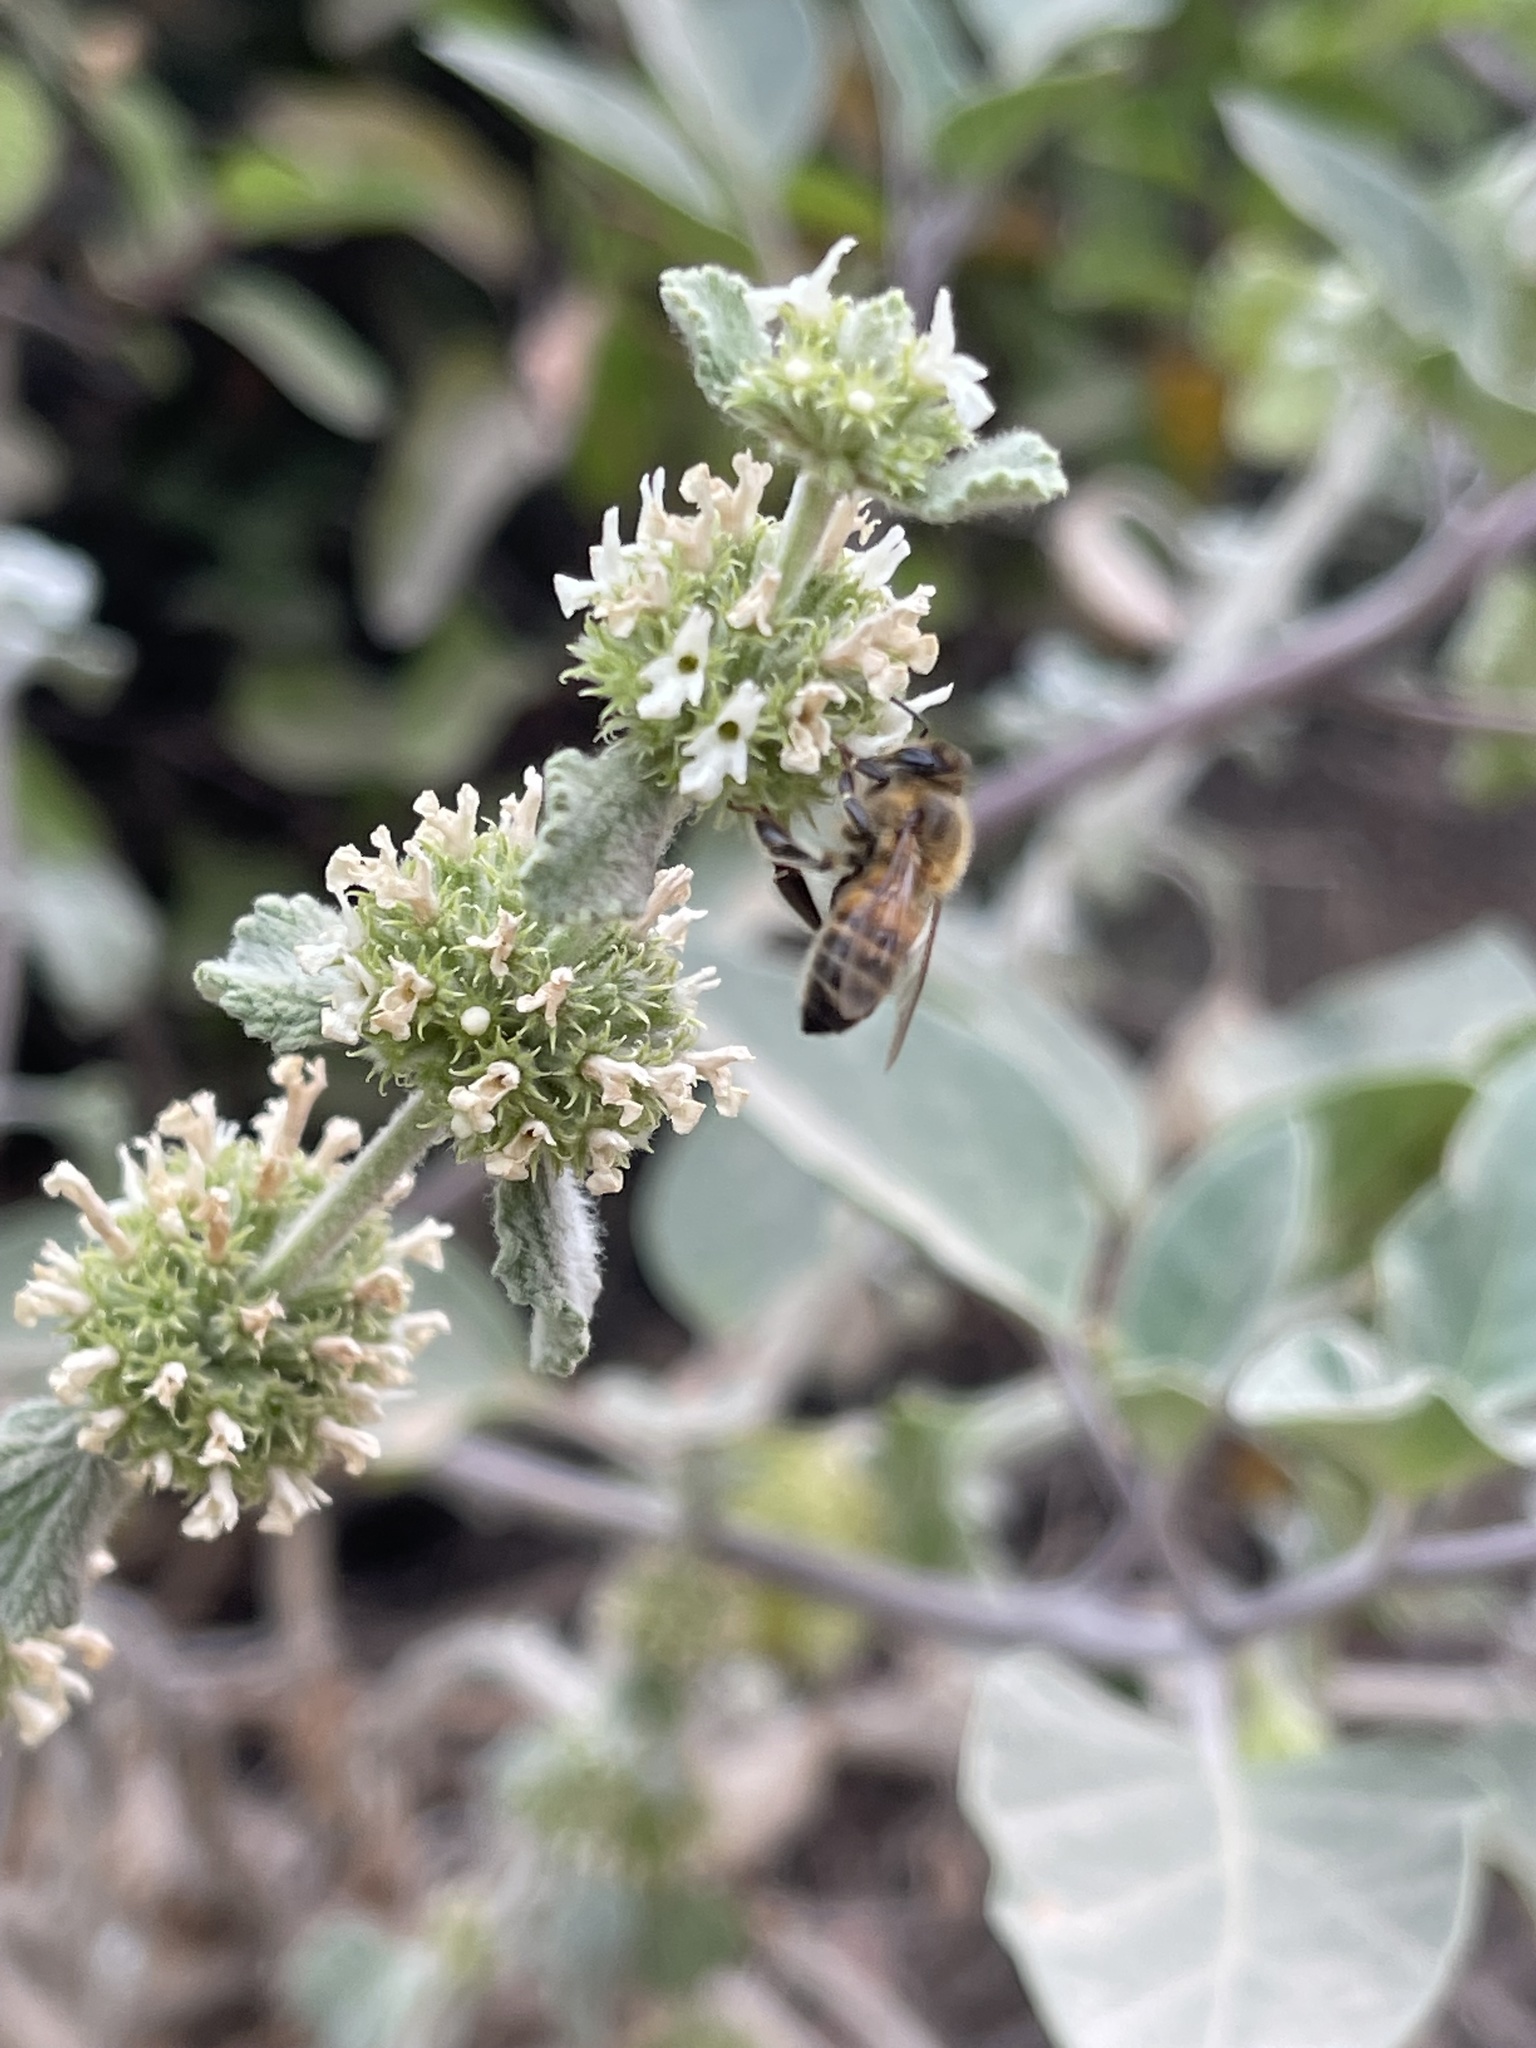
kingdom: Animalia
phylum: Arthropoda
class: Insecta
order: Hymenoptera
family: Apidae
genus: Apis
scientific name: Apis mellifera
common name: Honey bee
